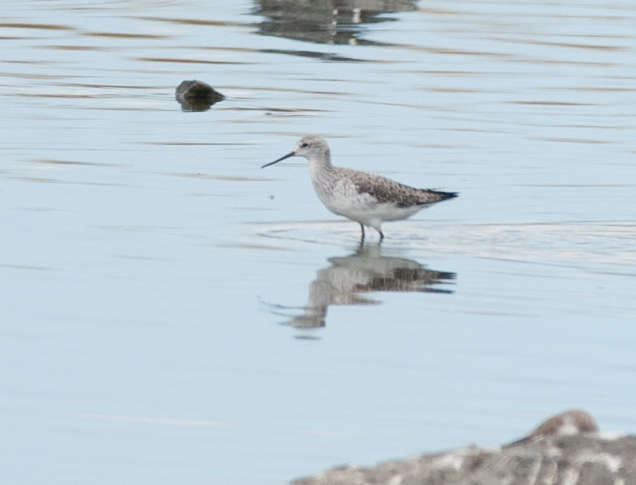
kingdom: Animalia
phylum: Chordata
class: Aves
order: Charadriiformes
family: Scolopacidae
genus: Tringa
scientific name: Tringa stagnatilis
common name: Marsh sandpiper
